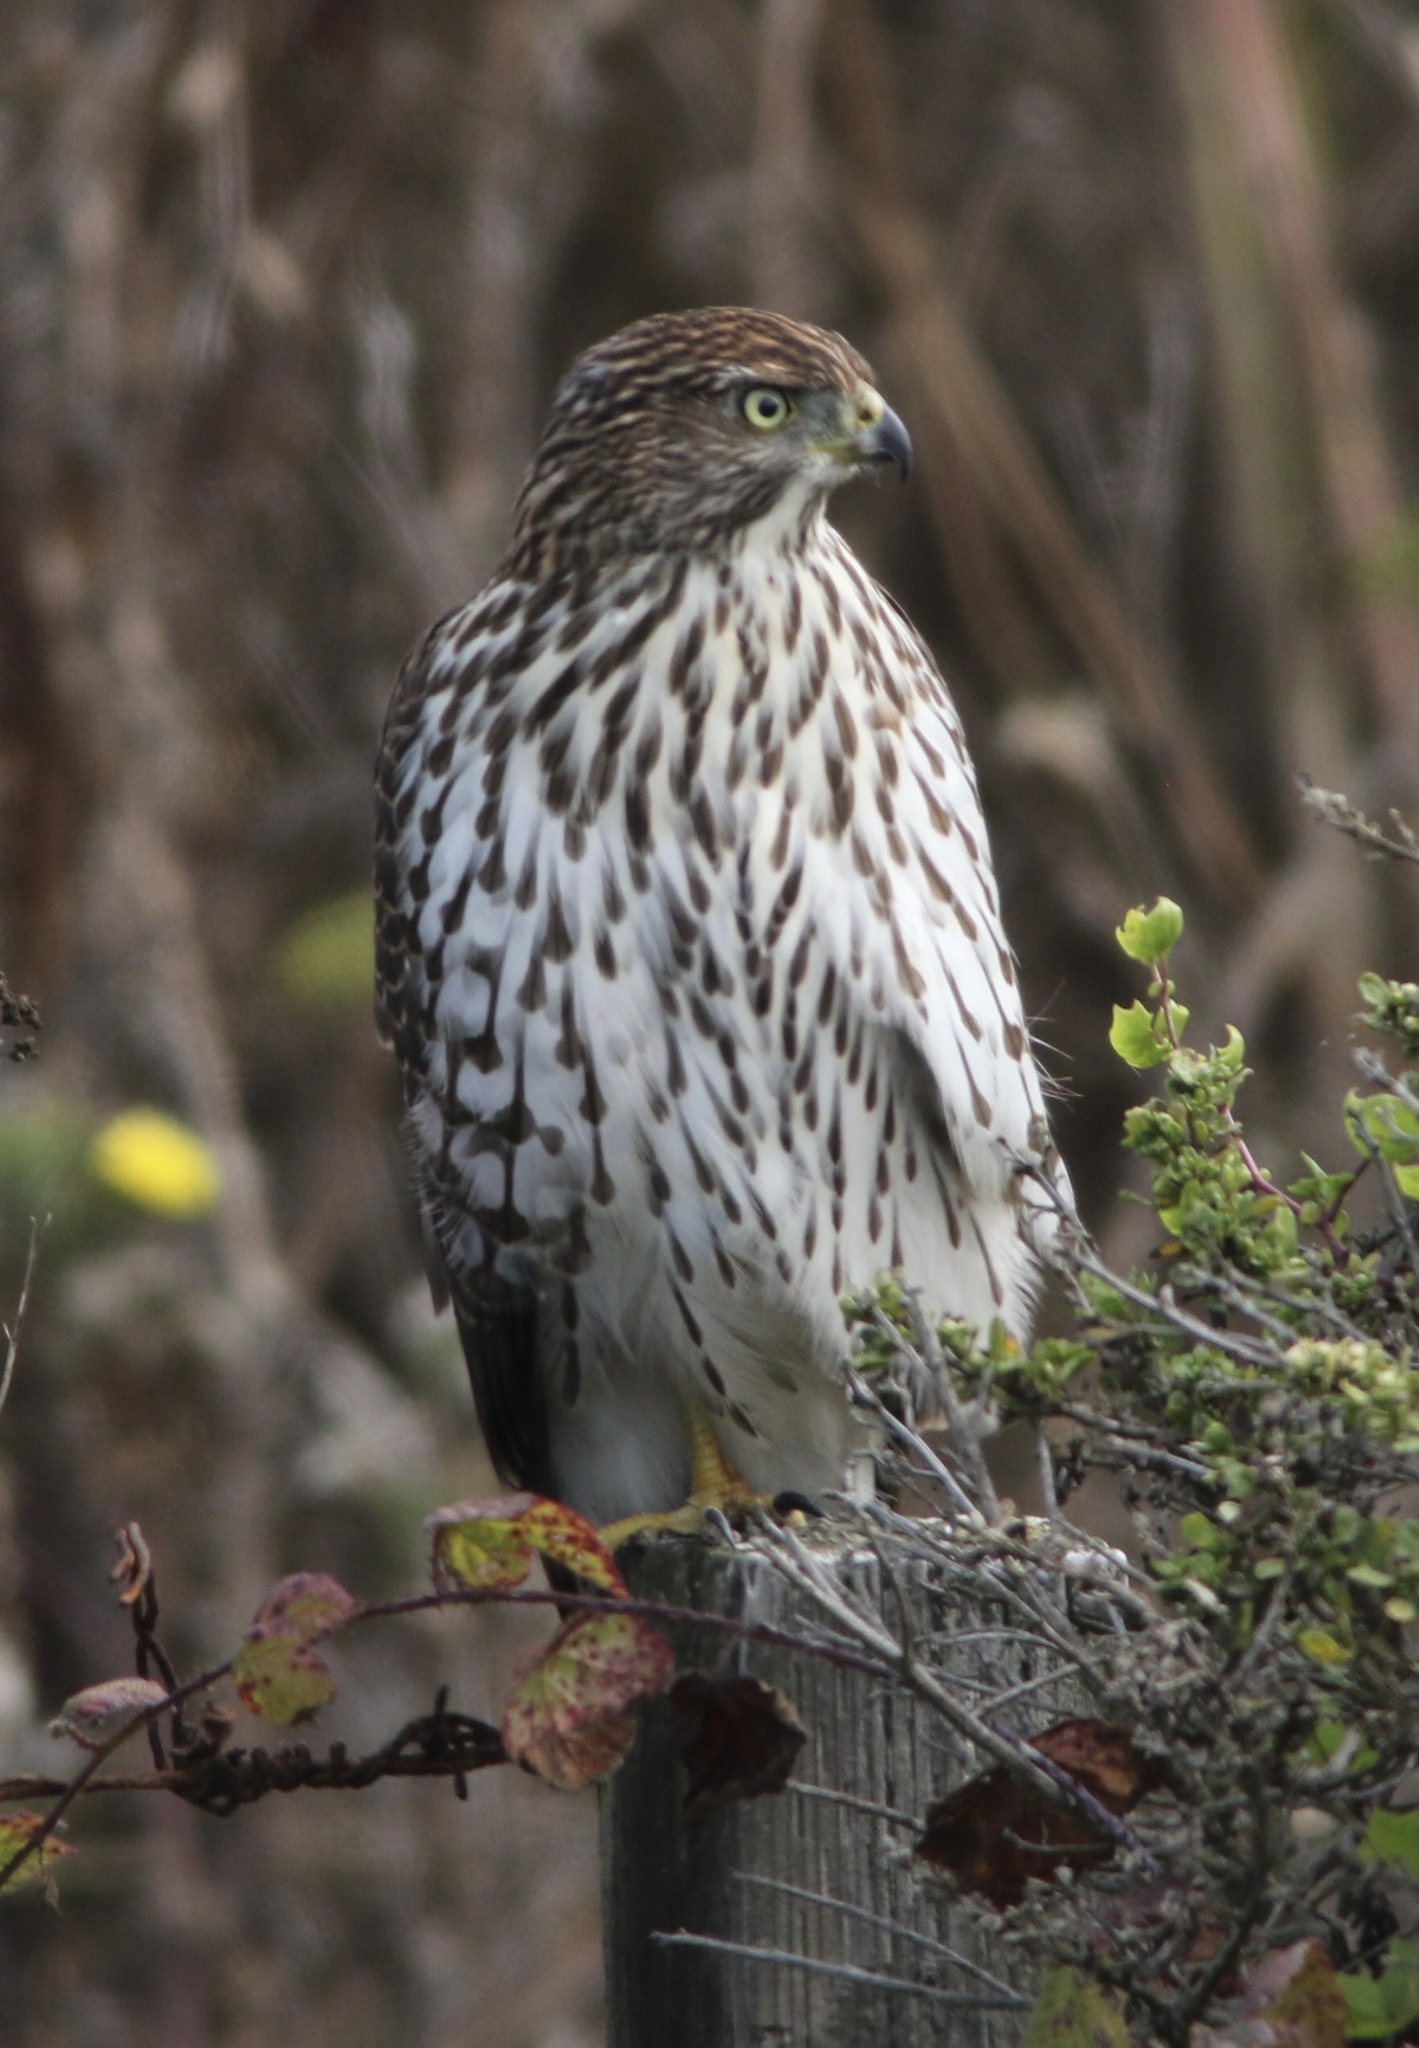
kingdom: Animalia
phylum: Chordata
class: Aves
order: Accipitriformes
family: Accipitridae
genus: Accipiter
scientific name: Accipiter cooperii
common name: Cooper's hawk
